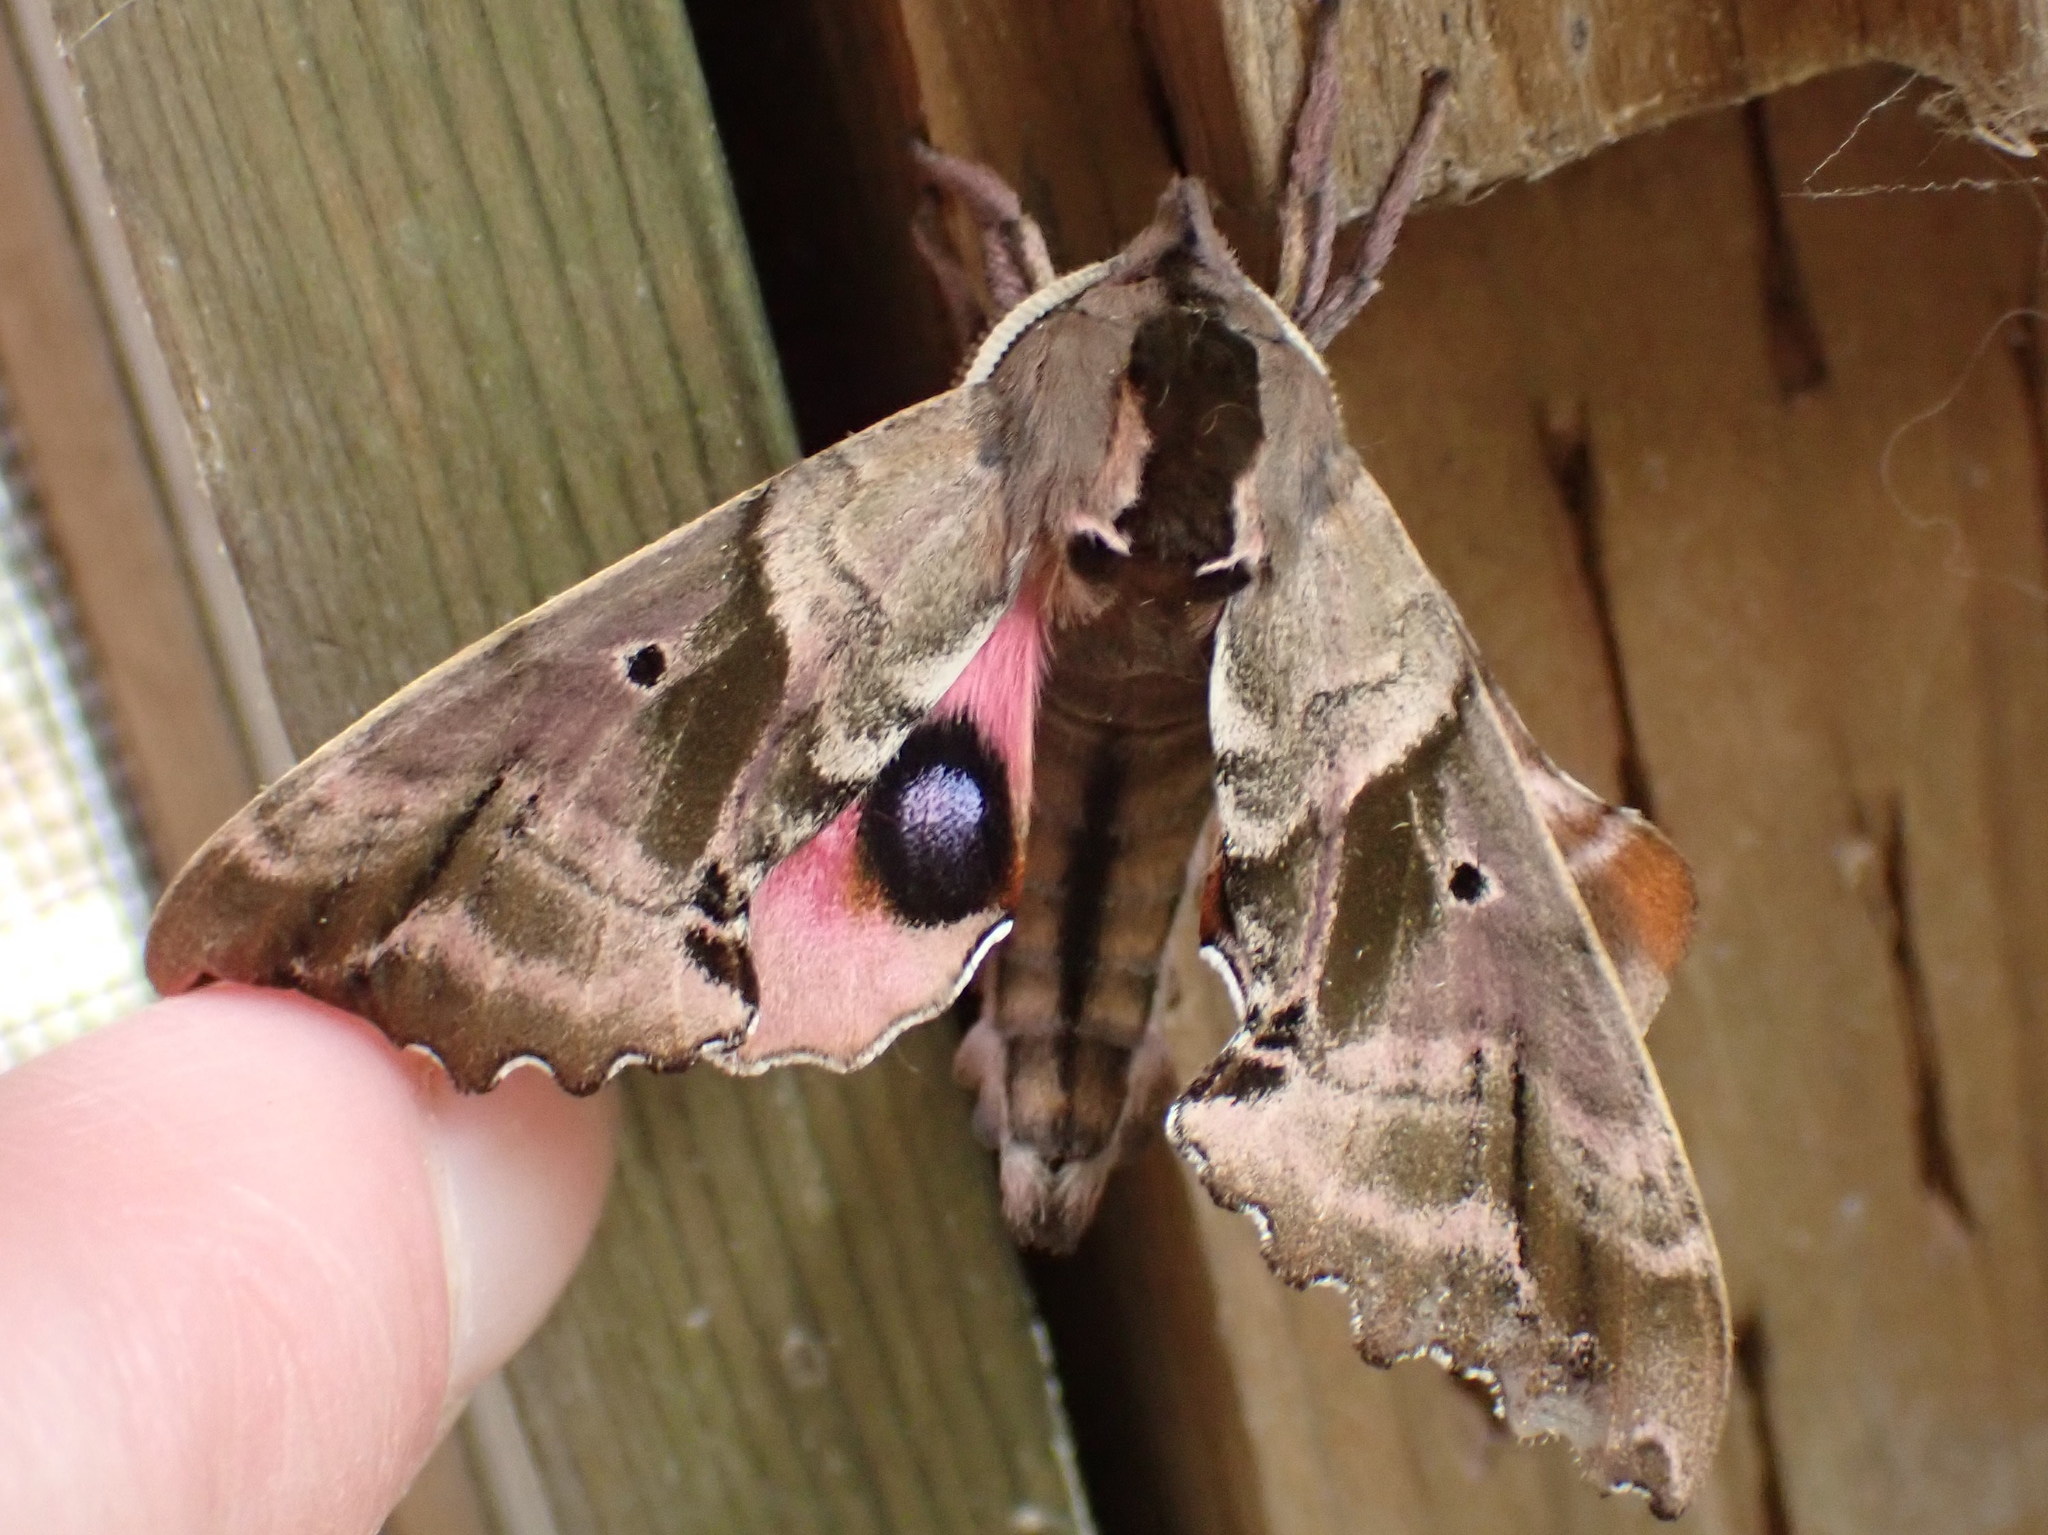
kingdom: Animalia
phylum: Arthropoda
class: Insecta
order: Lepidoptera
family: Sphingidae
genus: Paonias
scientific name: Paonias excaecata
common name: Blind-eyed sphinx
